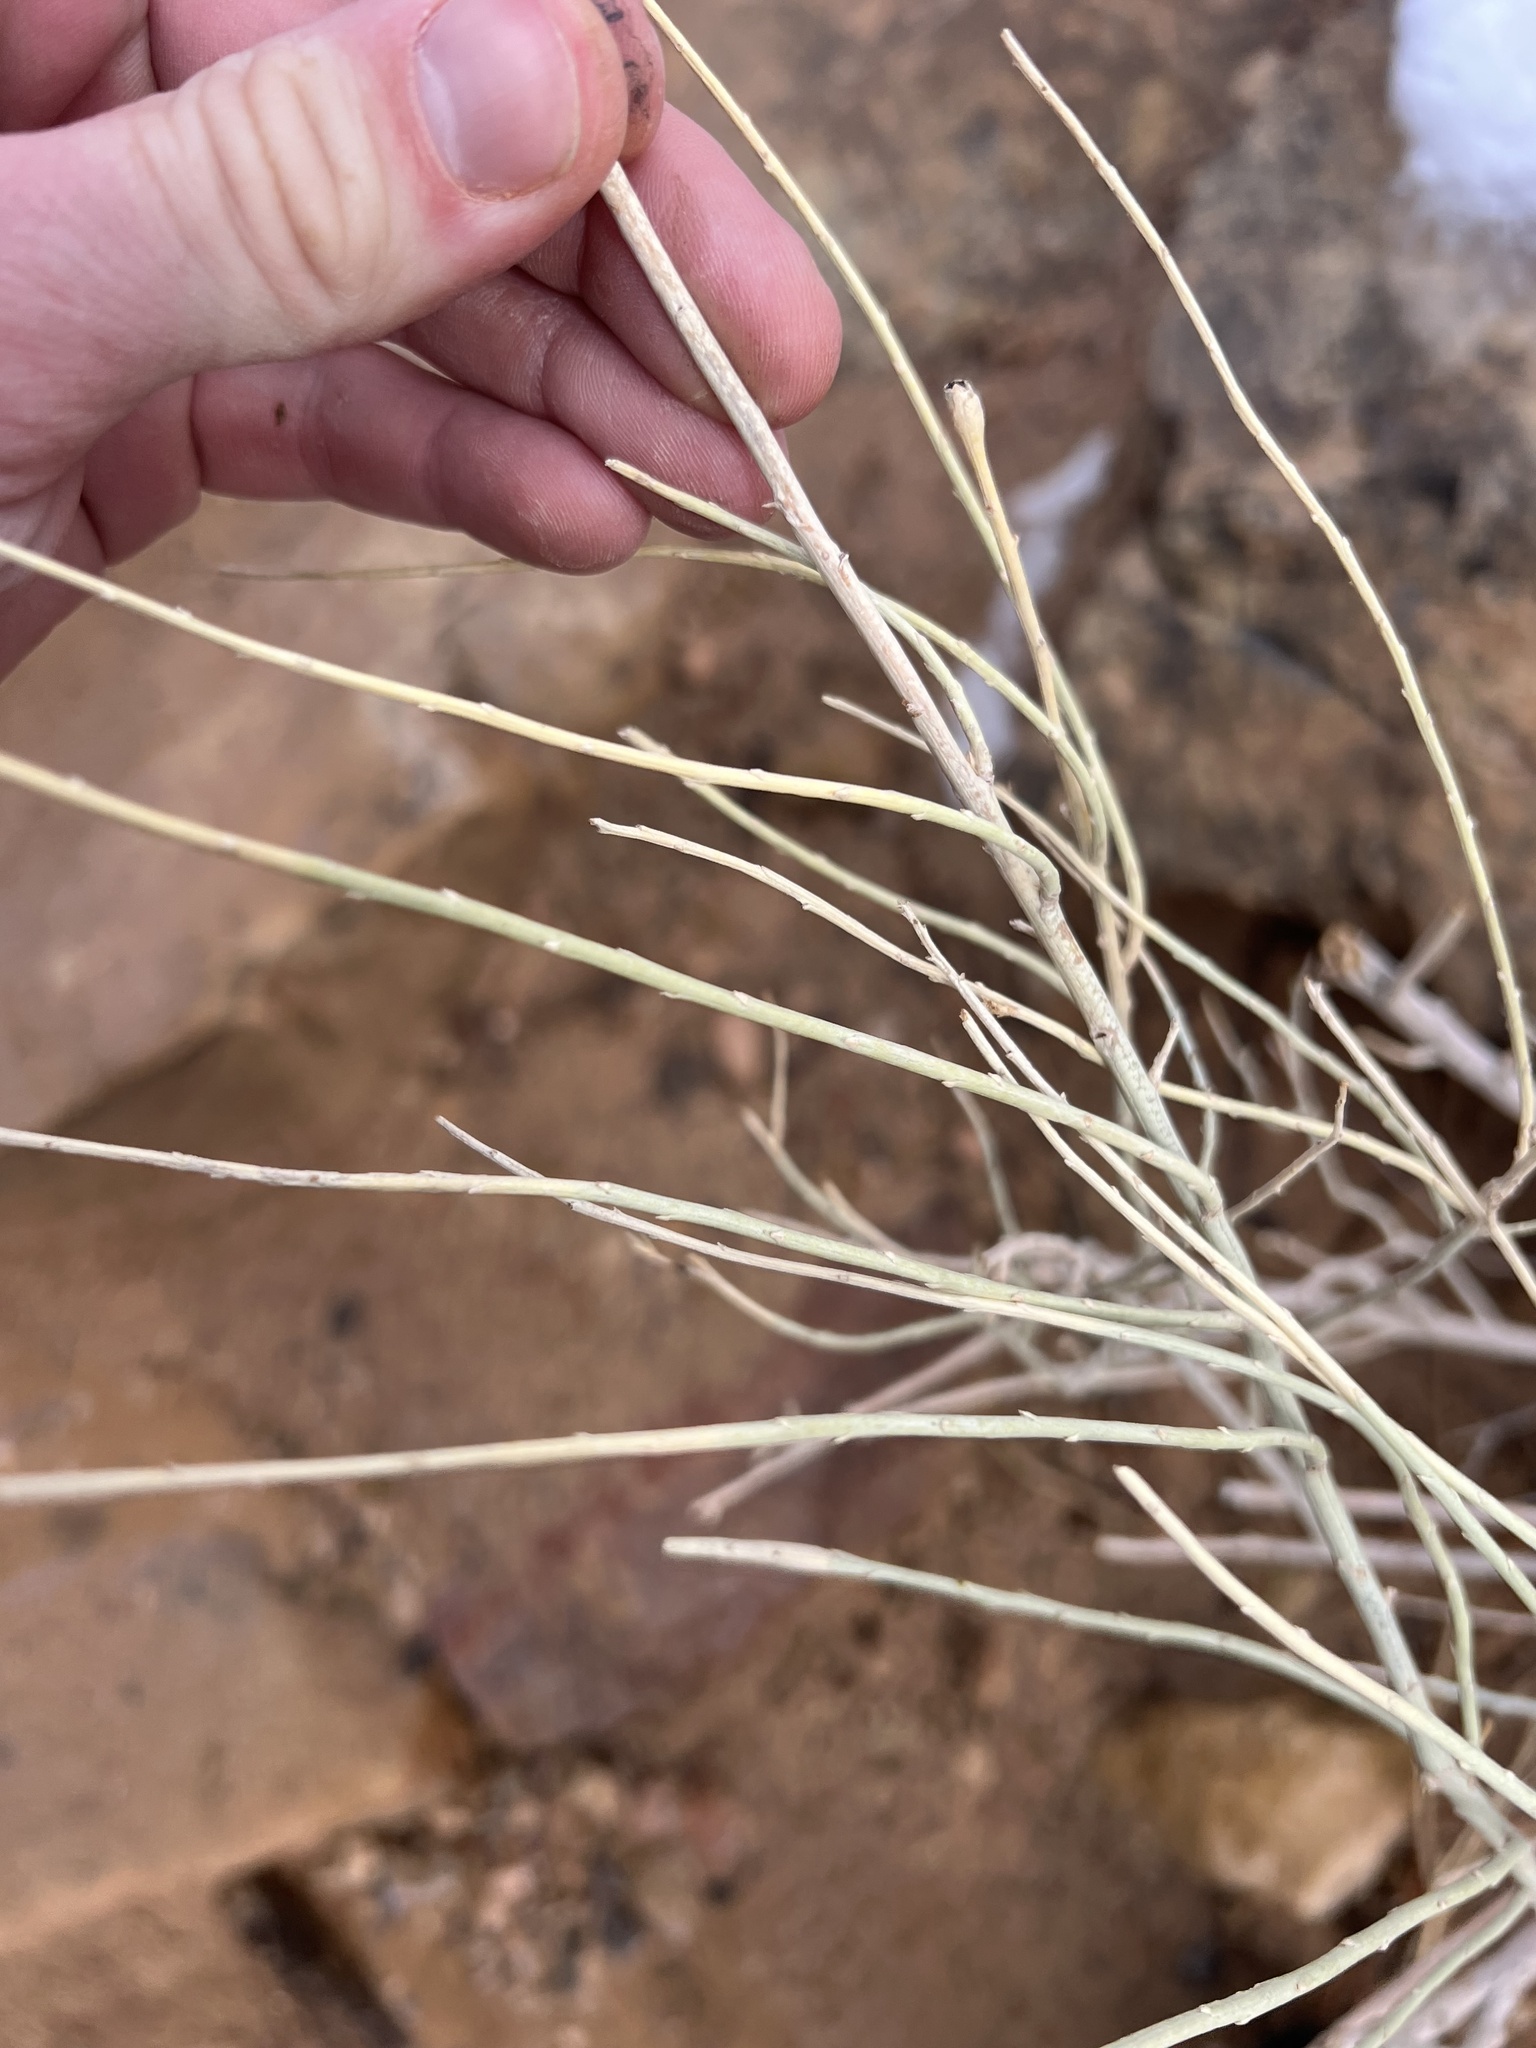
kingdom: Animalia
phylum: Arthropoda
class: Insecta
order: Diptera
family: Tephritidae
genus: Aciurina
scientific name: Aciurina bigeloviae
